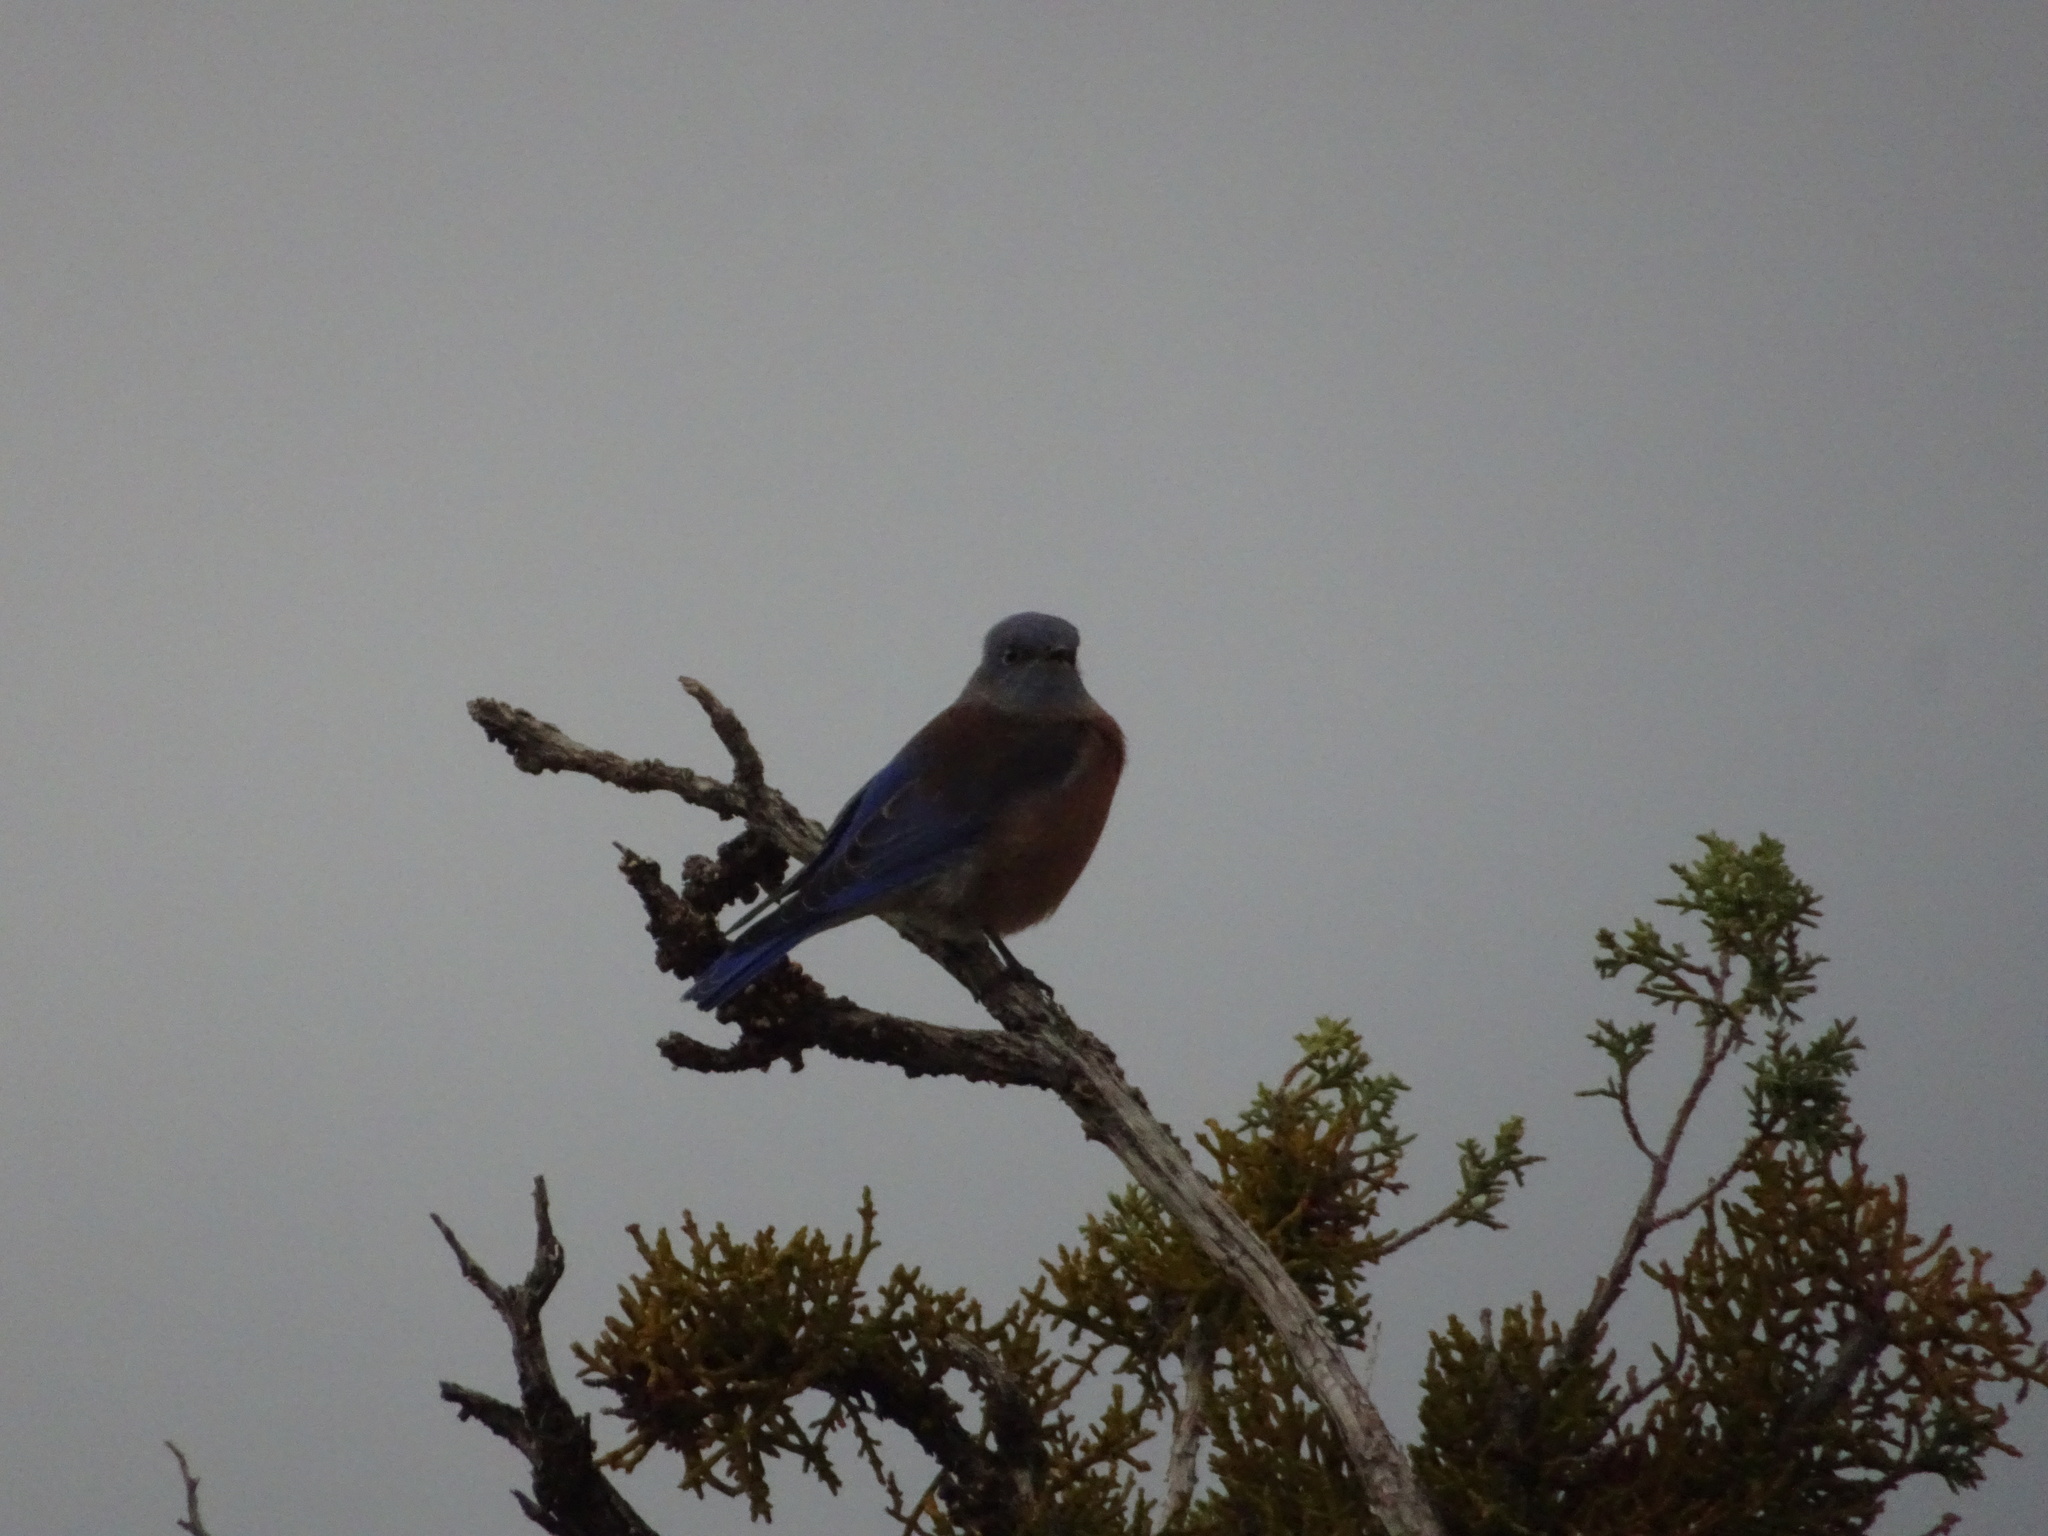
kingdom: Animalia
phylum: Chordata
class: Aves
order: Passeriformes
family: Turdidae
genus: Sialia
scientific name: Sialia mexicana
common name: Western bluebird
